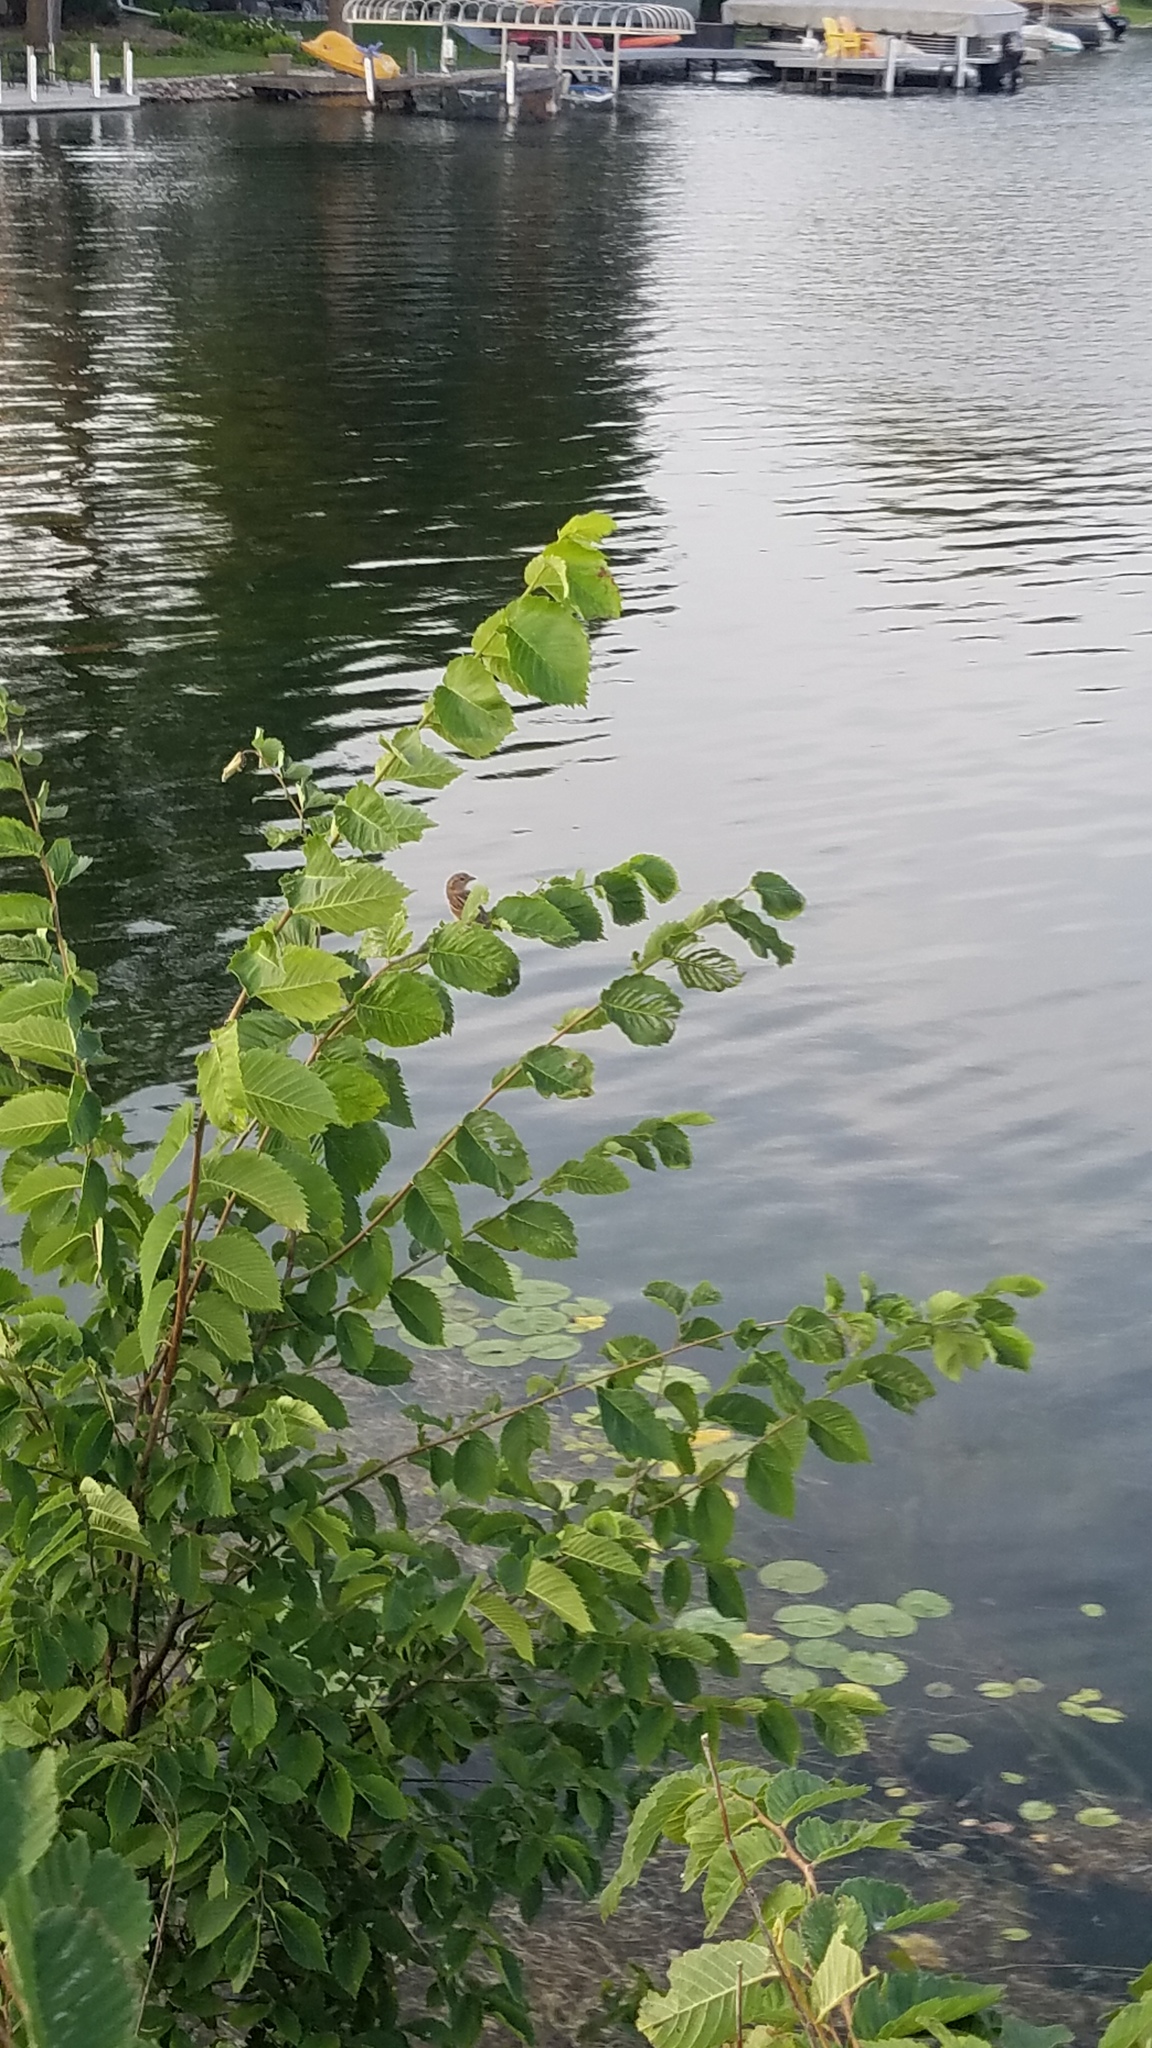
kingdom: Animalia
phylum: Chordata
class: Aves
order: Passeriformes
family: Passeridae
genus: Passer
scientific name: Passer domesticus
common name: House sparrow
